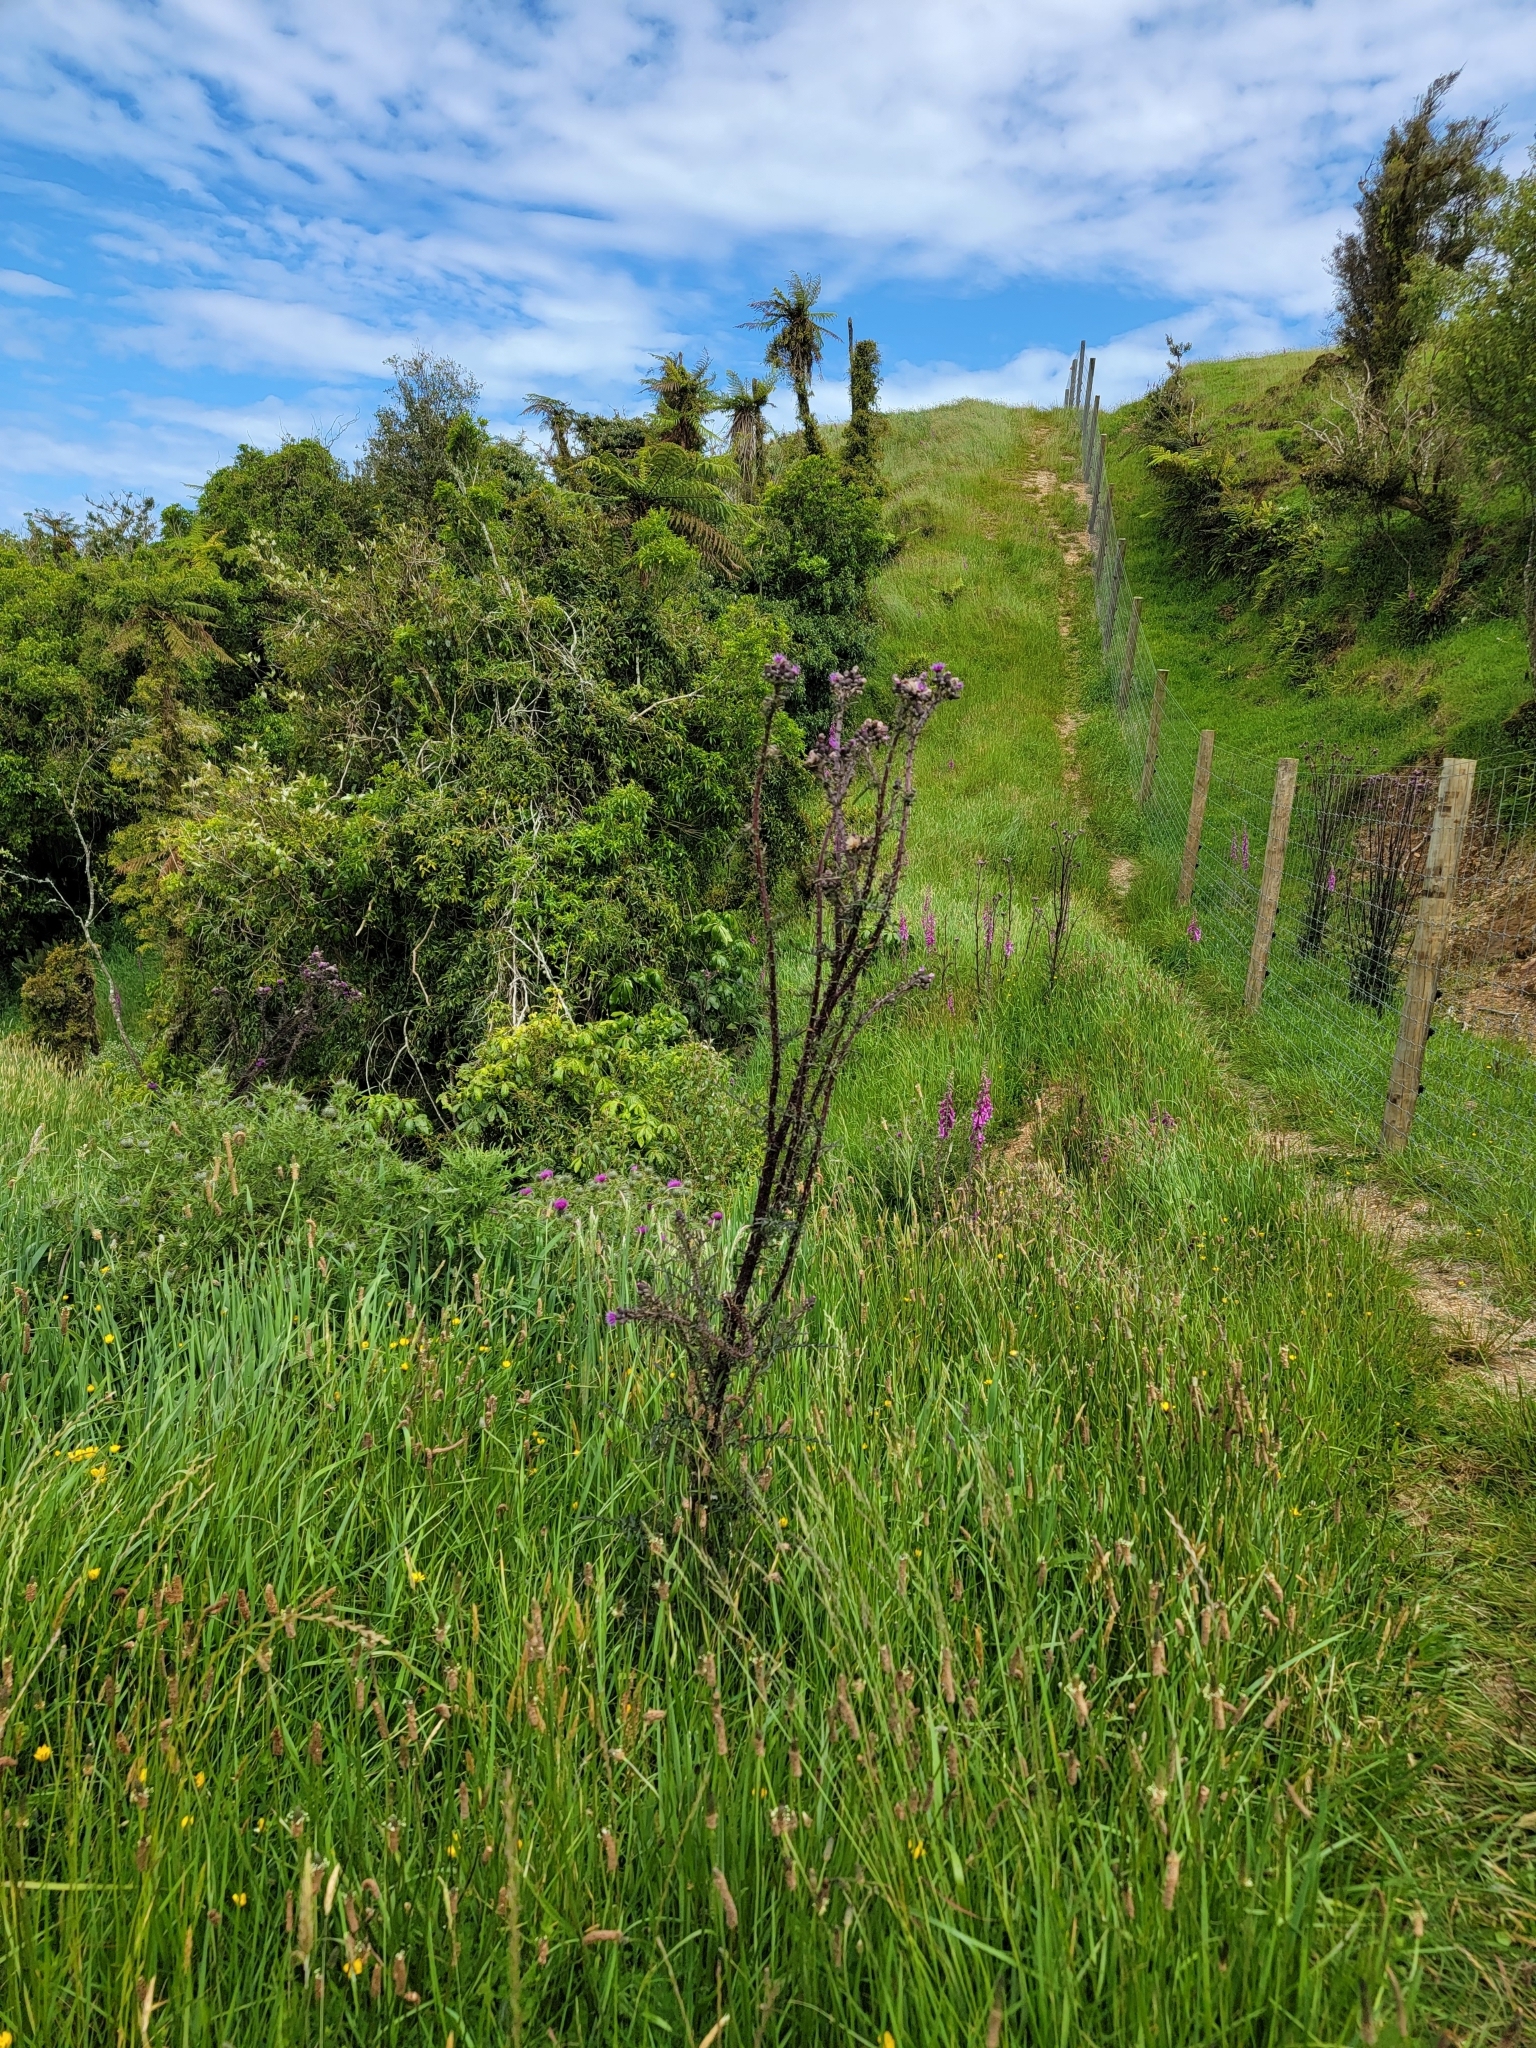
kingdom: Plantae
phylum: Tracheophyta
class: Magnoliopsida
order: Asterales
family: Asteraceae
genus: Cirsium
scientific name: Cirsium palustre
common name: Marsh thistle
